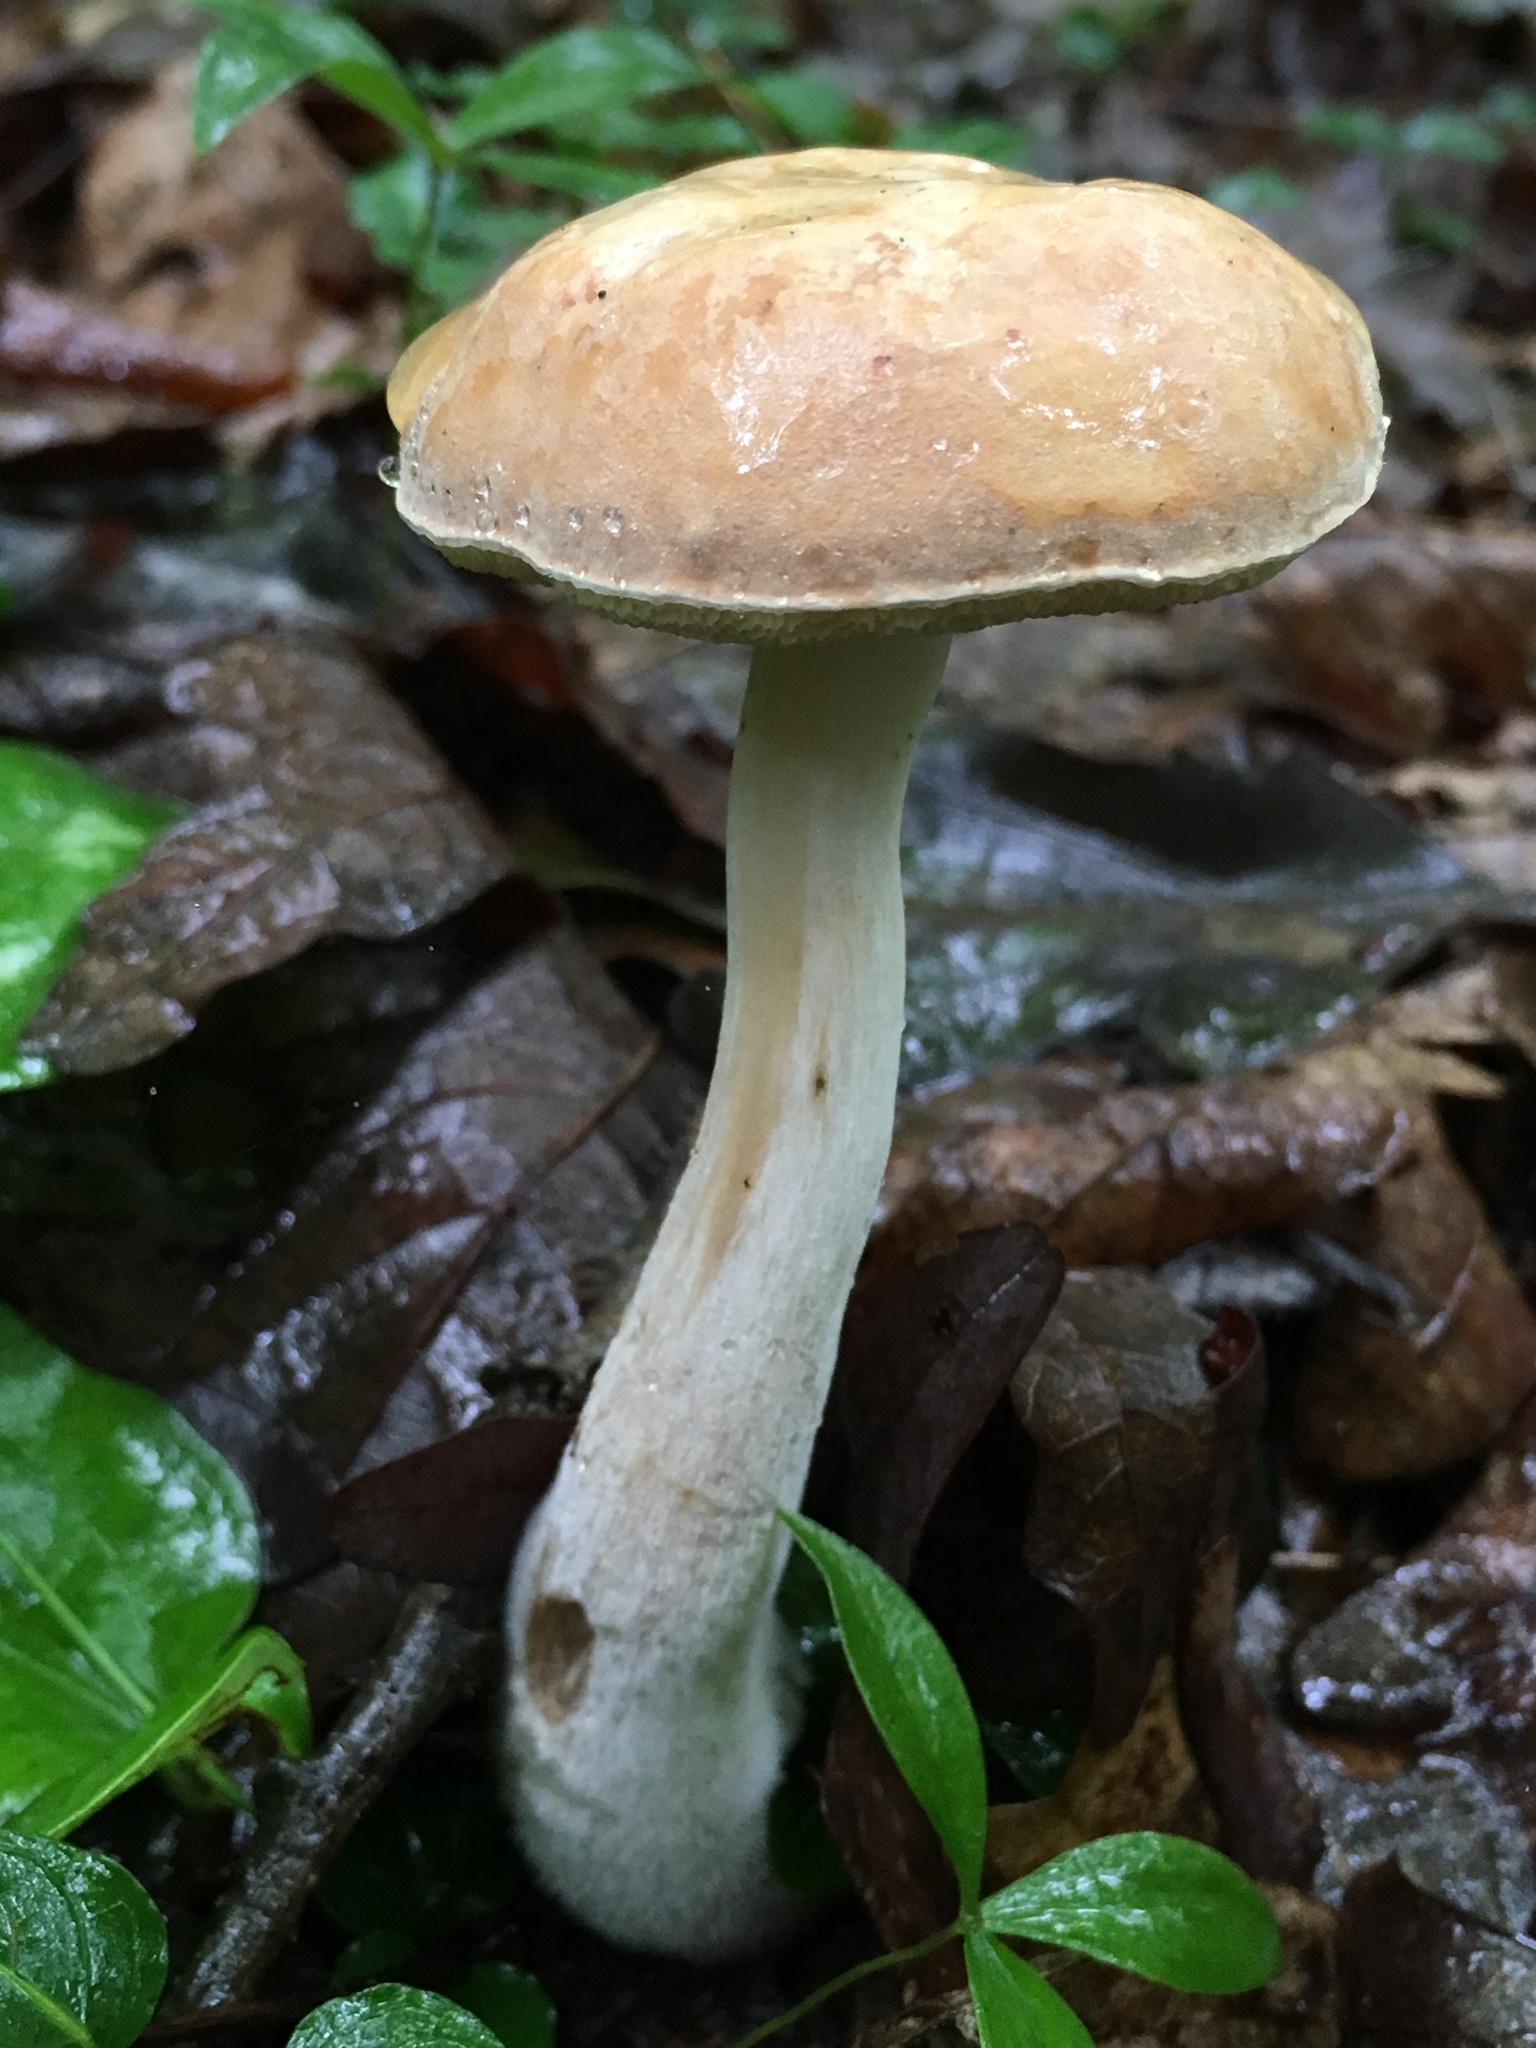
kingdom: Fungi
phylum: Basidiomycota
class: Agaricomycetes
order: Boletales
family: Boletaceae
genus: Imleria
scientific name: Imleria badia
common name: Bay bolete
